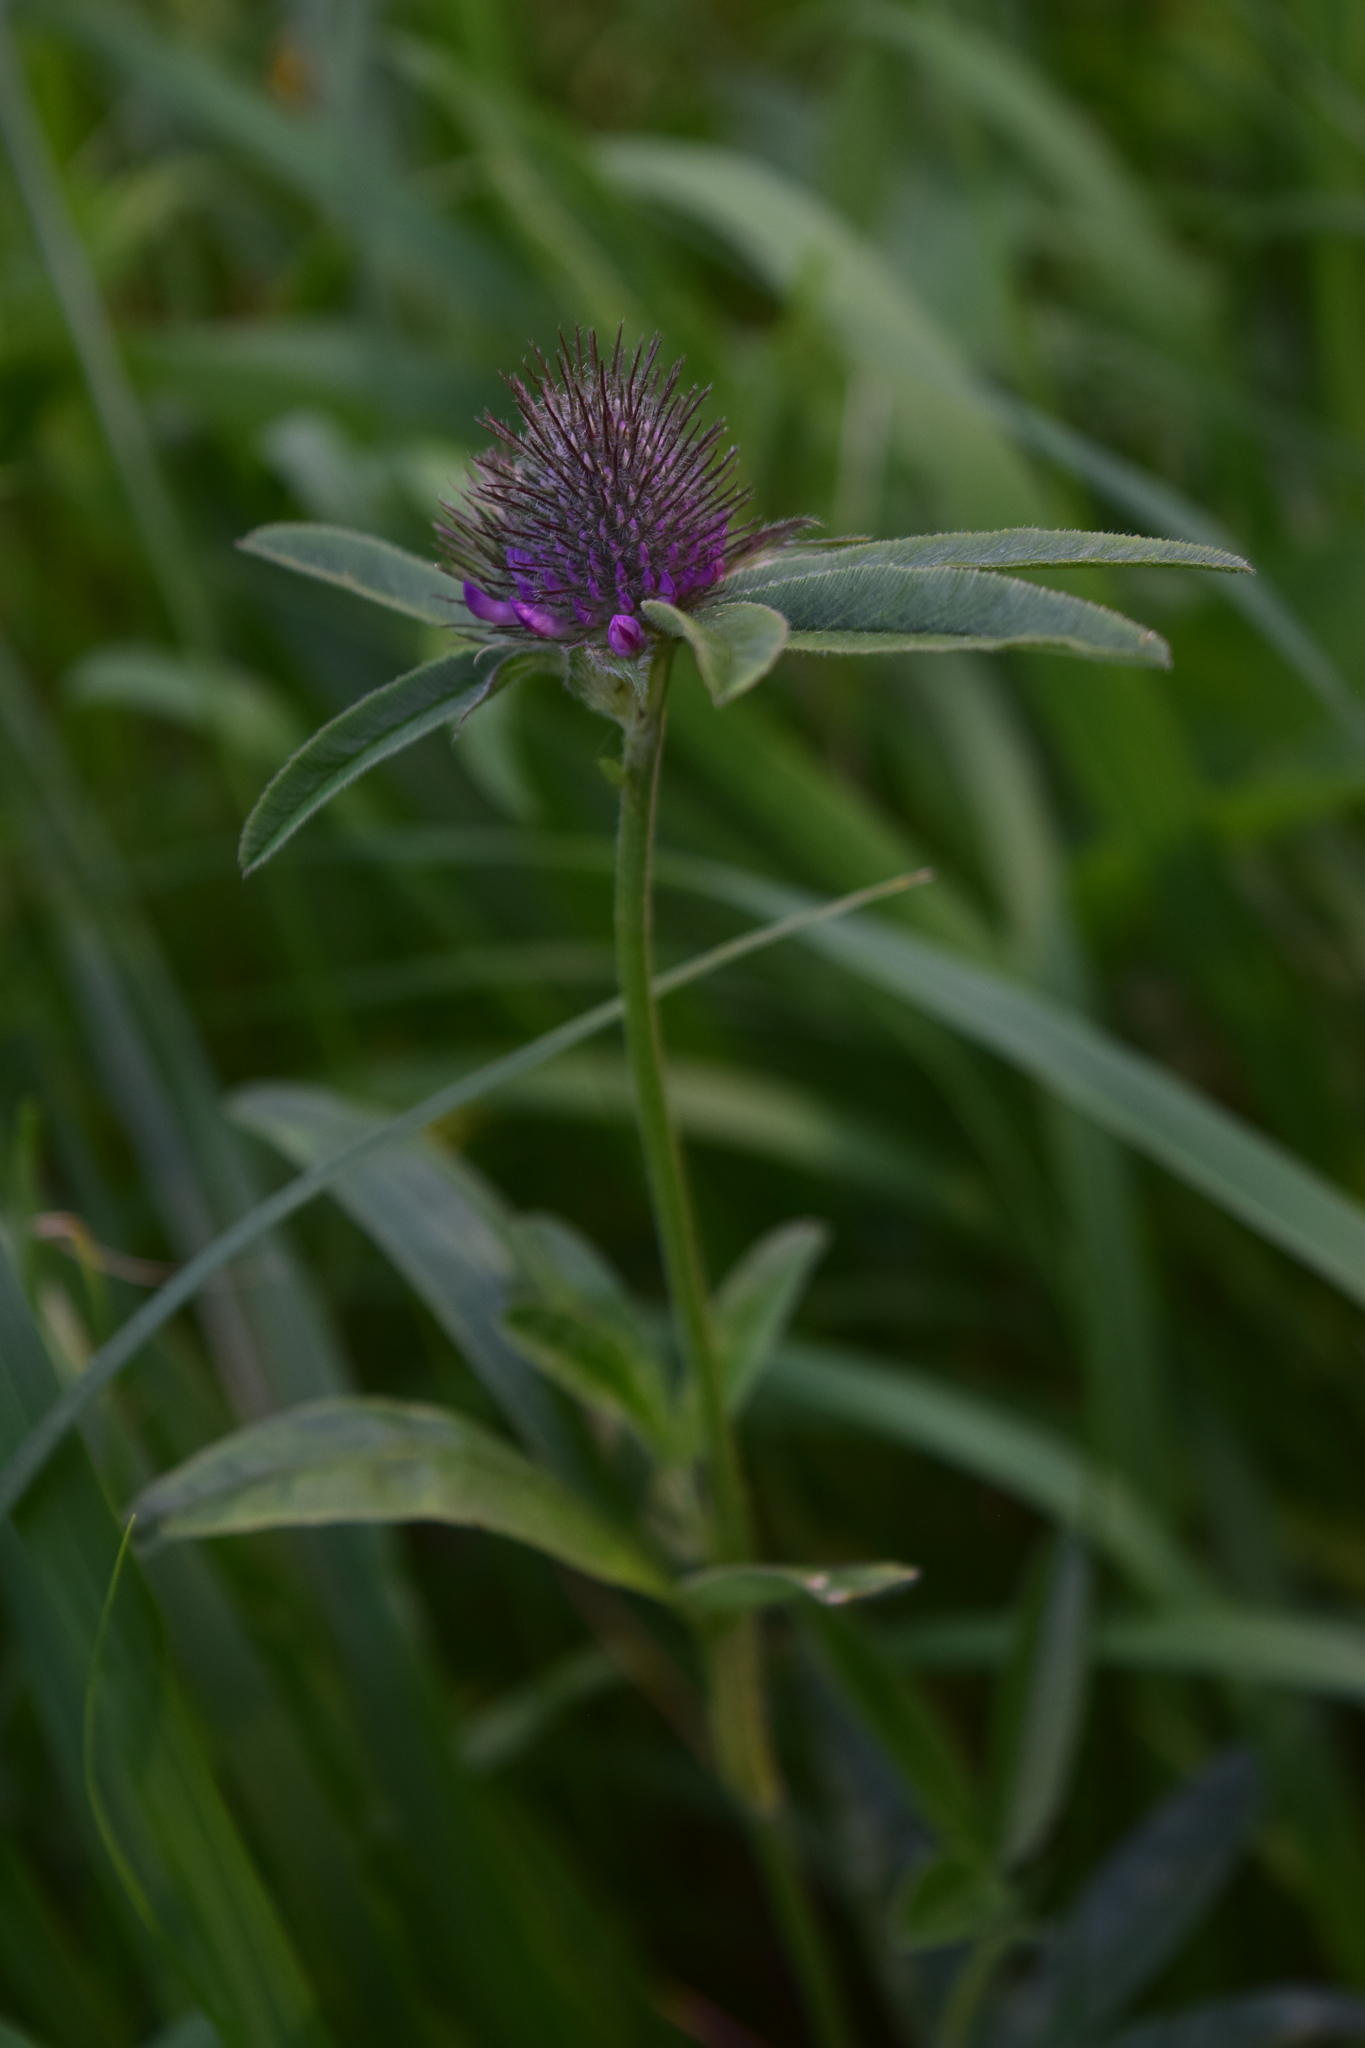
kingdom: Plantae
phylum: Tracheophyta
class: Magnoliopsida
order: Fabales
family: Fabaceae
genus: Trifolium
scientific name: Trifolium alpestre
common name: Owl-head clover
